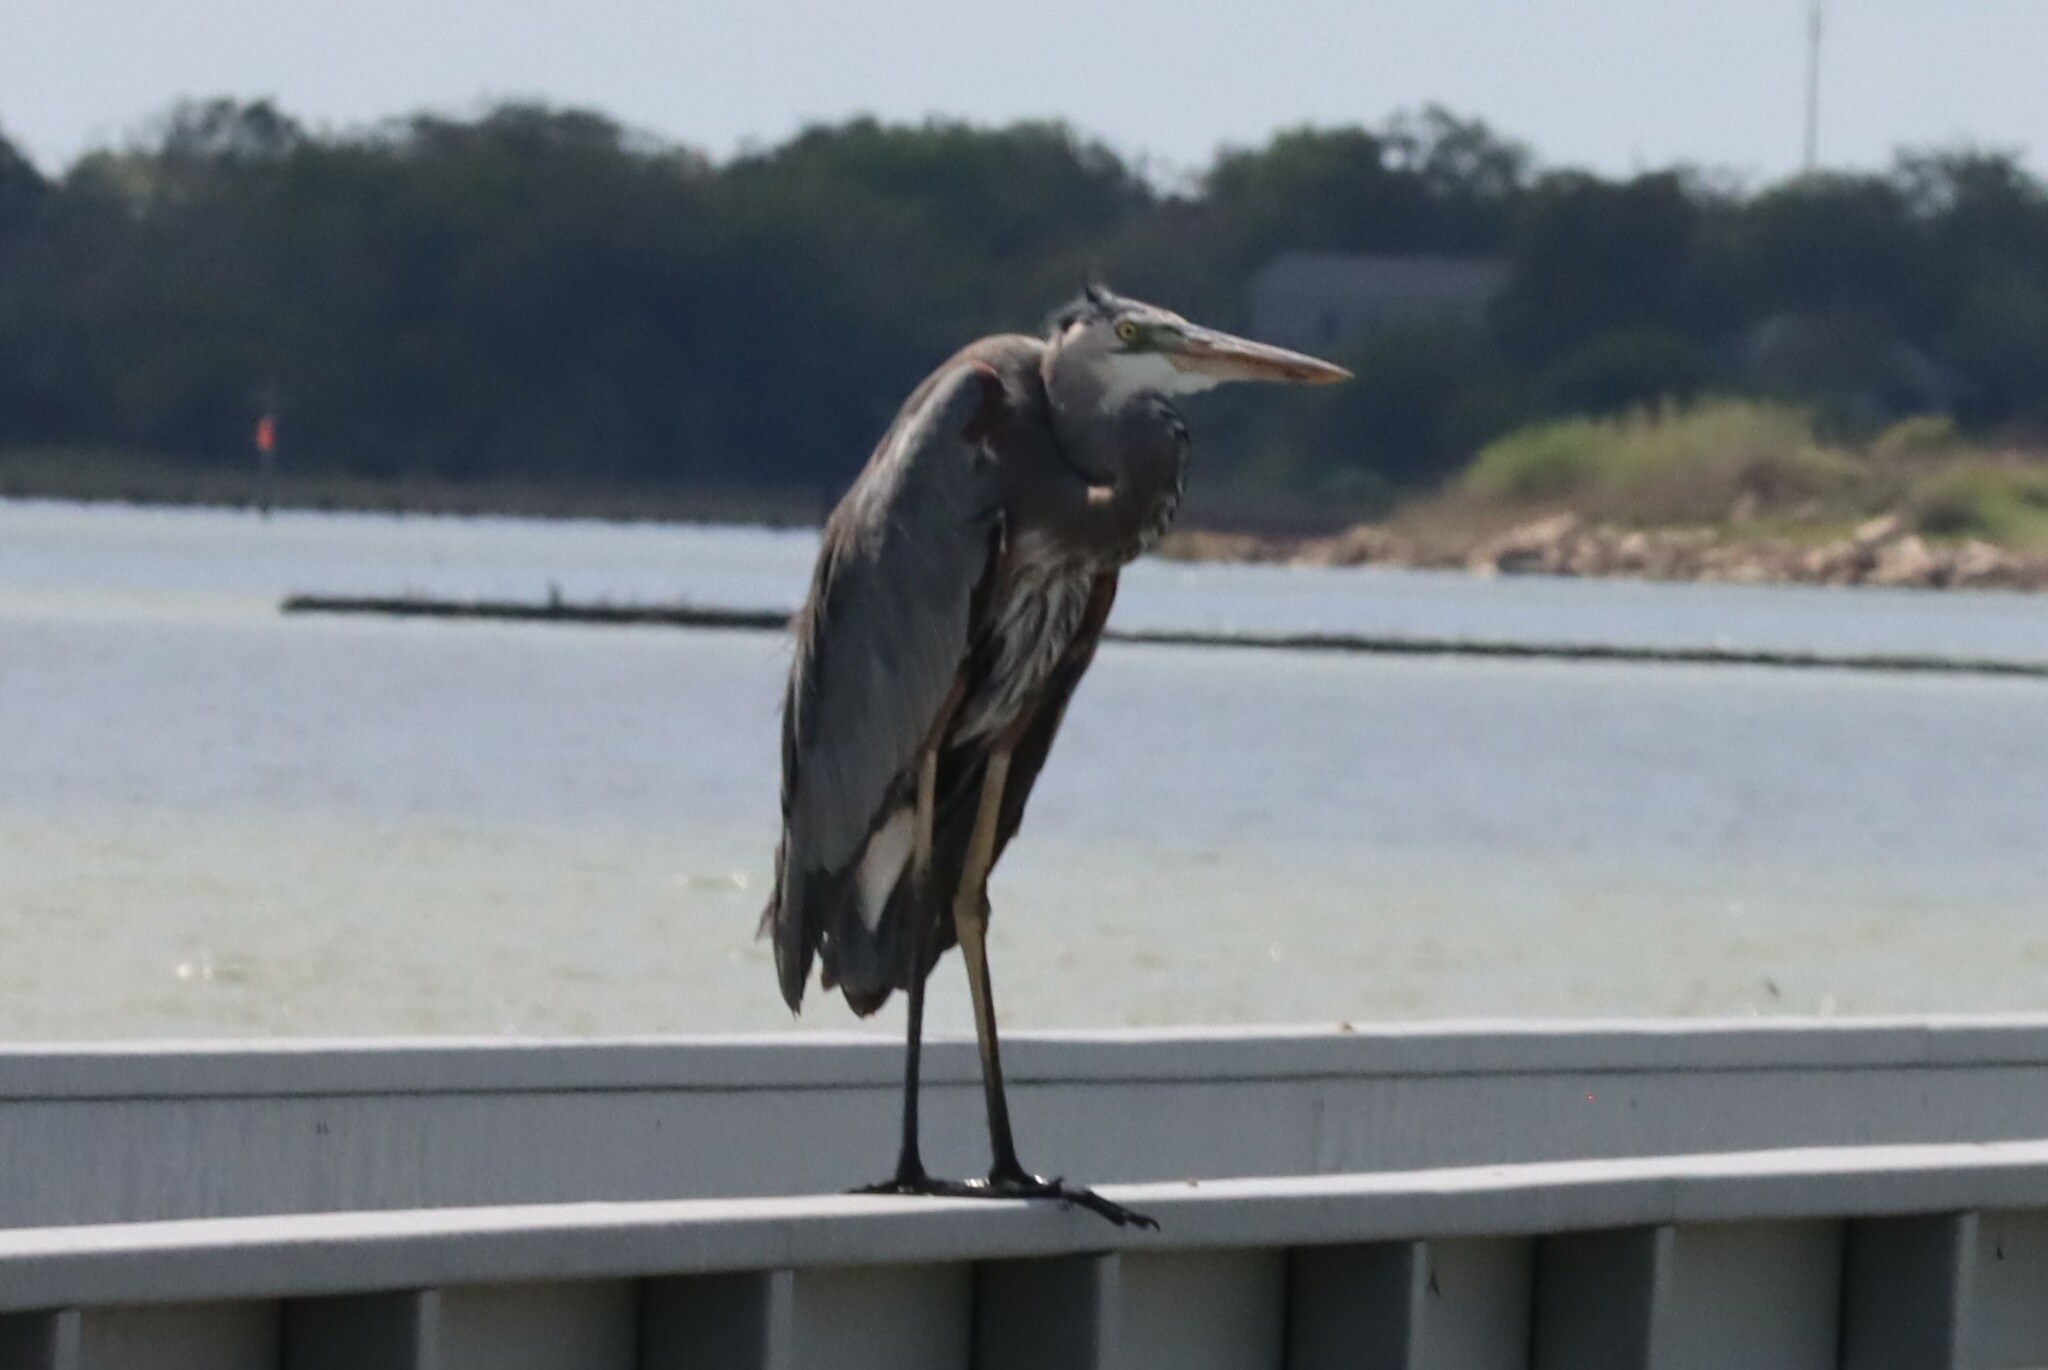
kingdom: Animalia
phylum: Chordata
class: Aves
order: Pelecaniformes
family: Ardeidae
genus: Ardea
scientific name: Ardea herodias
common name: Great blue heron
